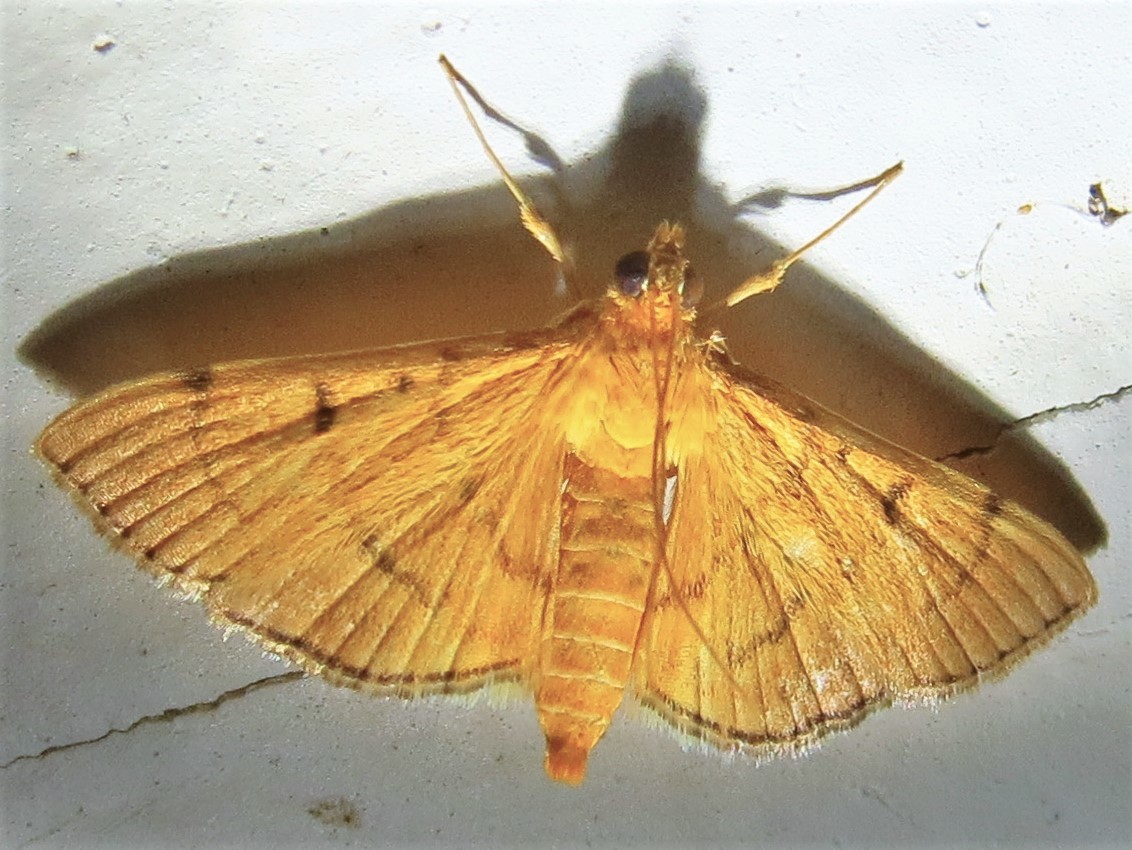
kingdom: Animalia
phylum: Arthropoda
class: Insecta
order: Lepidoptera
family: Crambidae
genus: Condylorrhiza
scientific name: Condylorrhiza vestigialis
